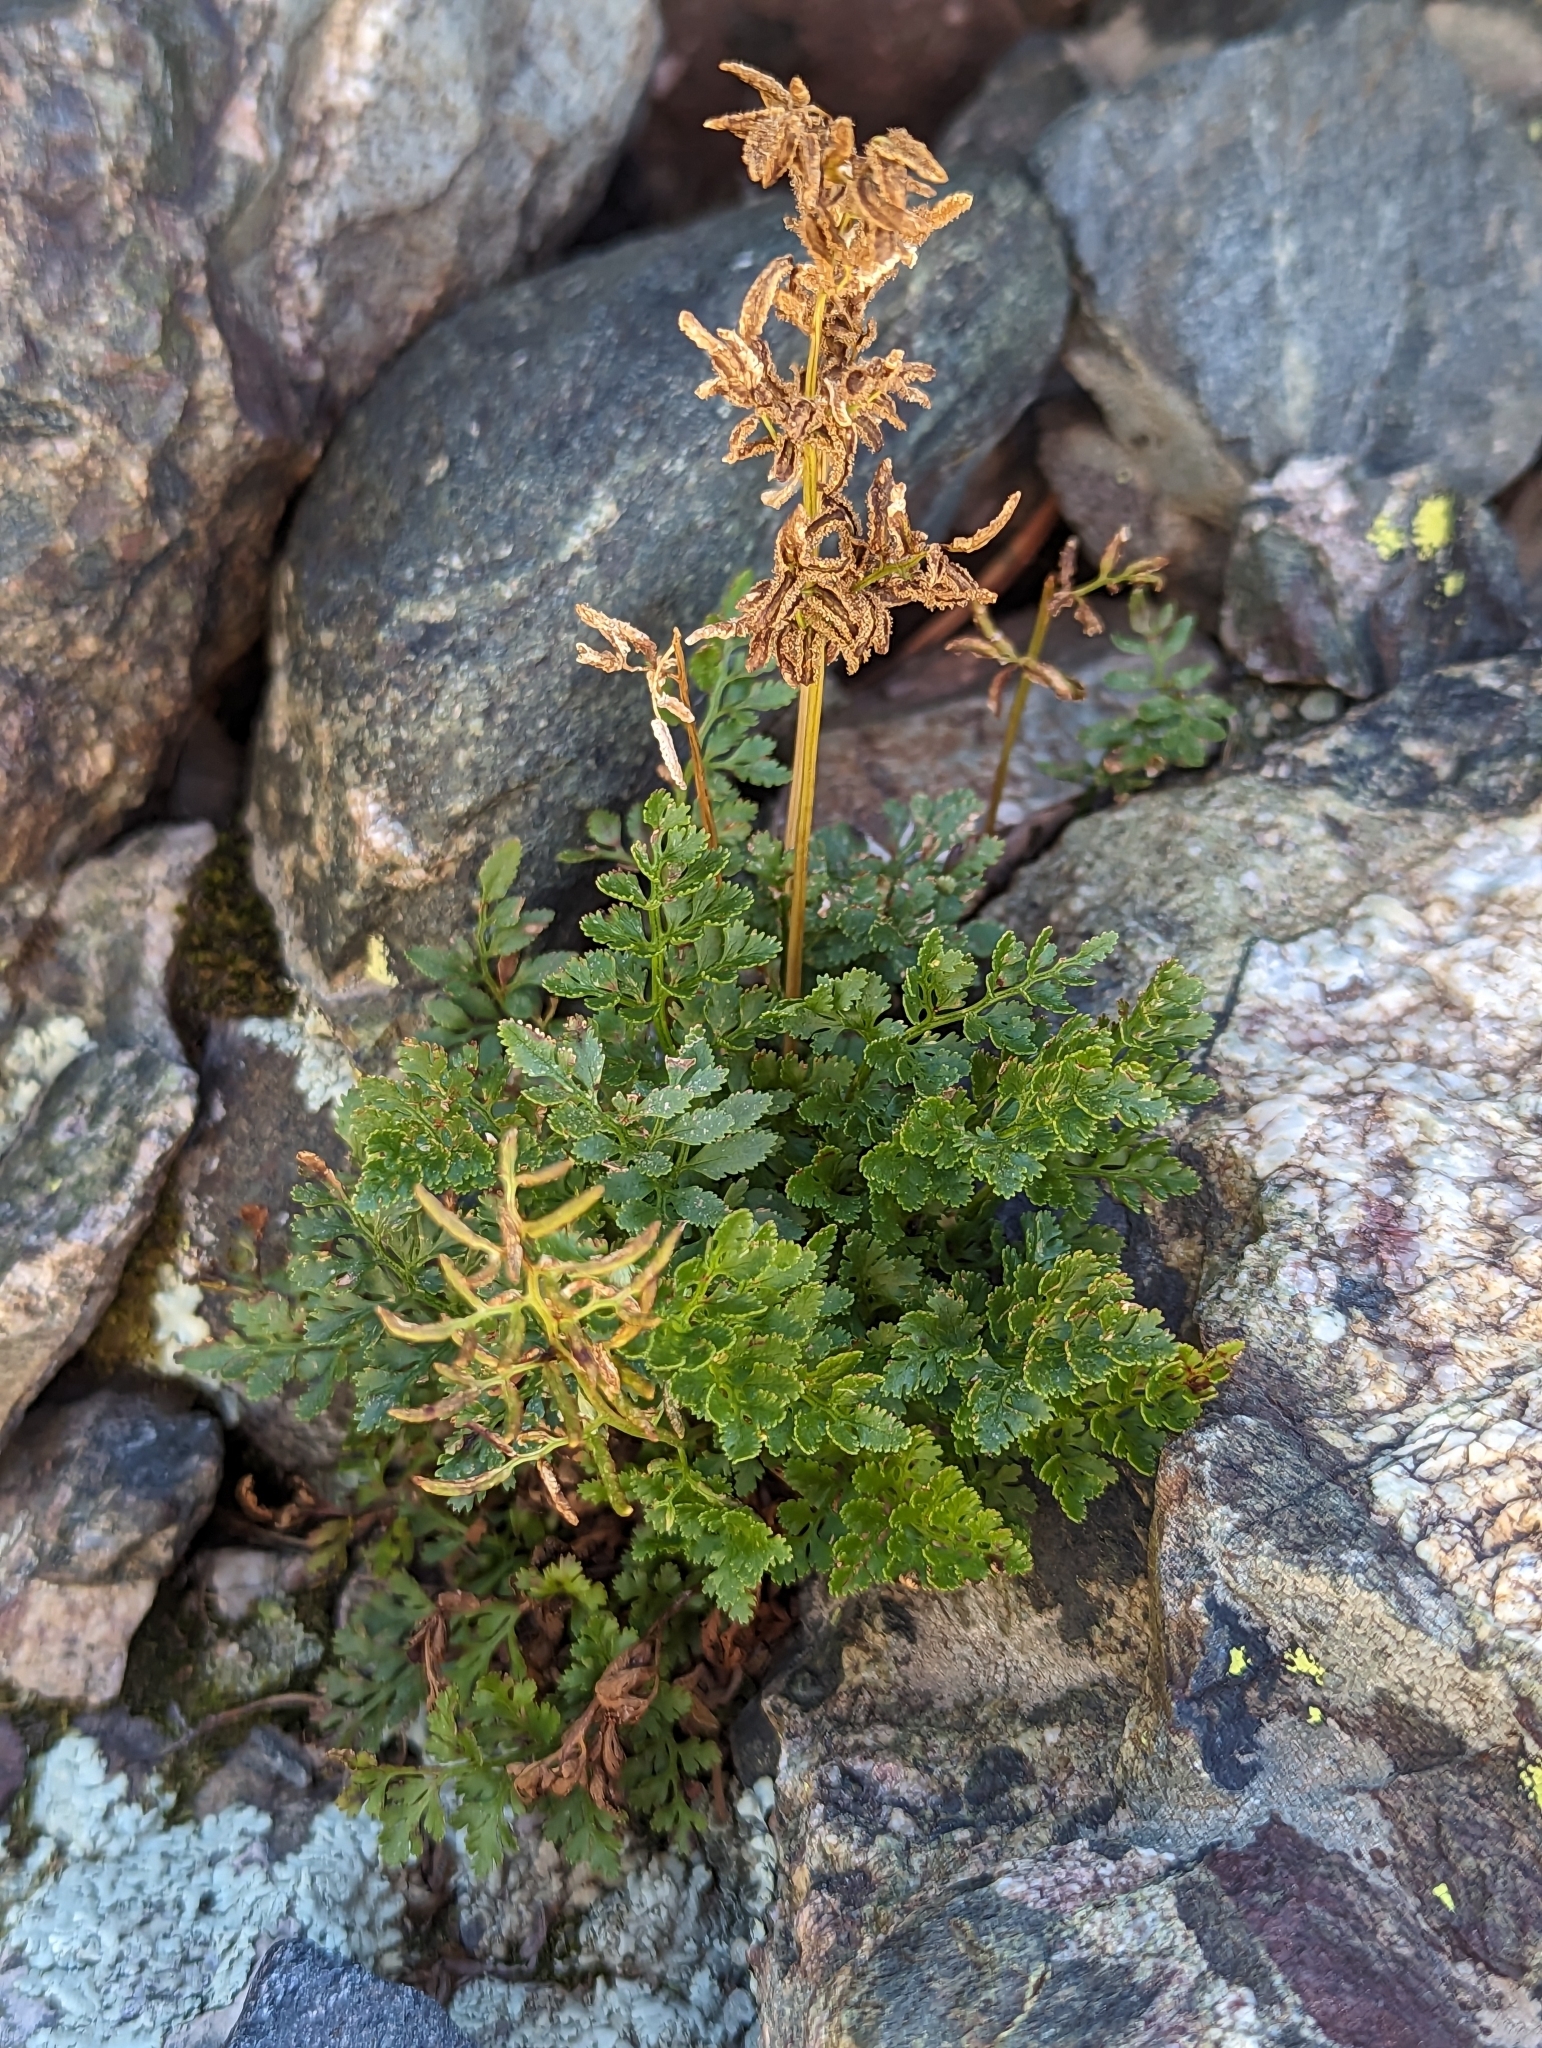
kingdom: Plantae
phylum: Tracheophyta
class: Polypodiopsida
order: Polypodiales
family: Pteridaceae
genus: Cryptogramma
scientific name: Cryptogramma acrostichoides
